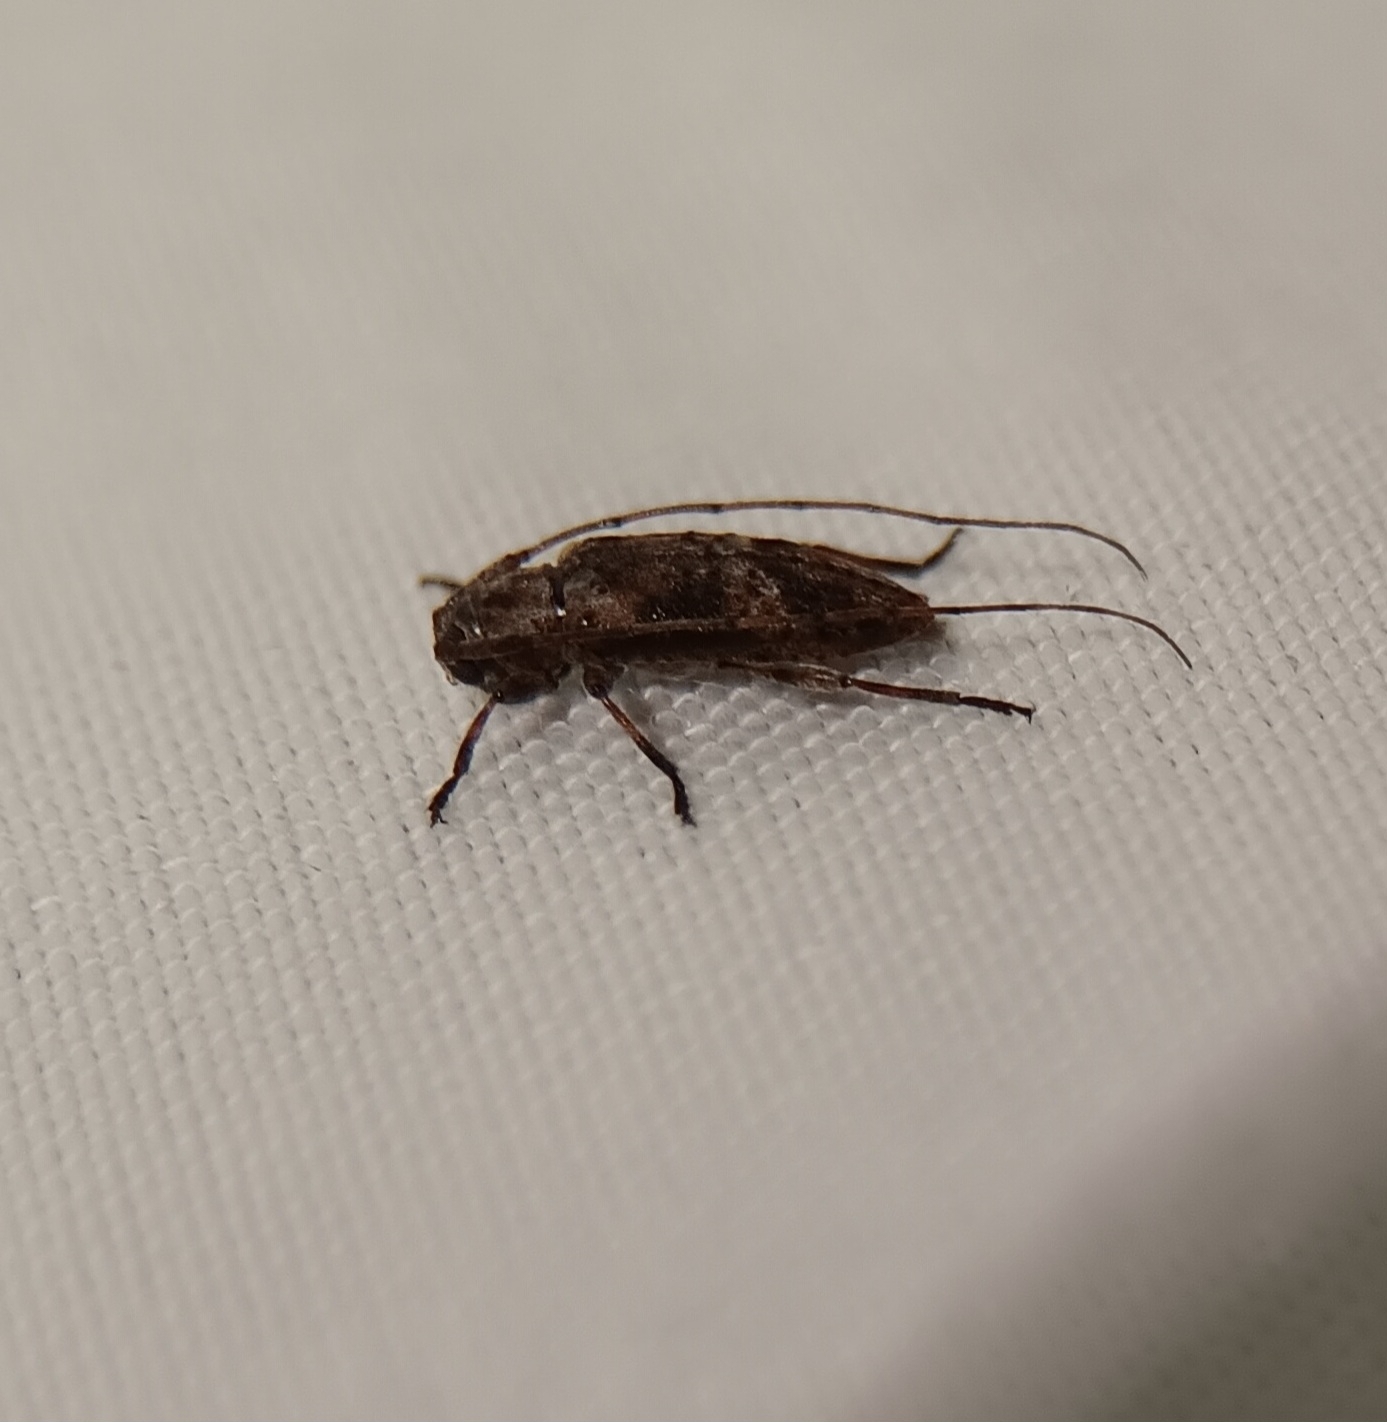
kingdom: Animalia
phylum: Arthropoda
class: Insecta
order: Coleoptera
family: Cerambycidae
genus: Sternidius
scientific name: Sternidius alpha
